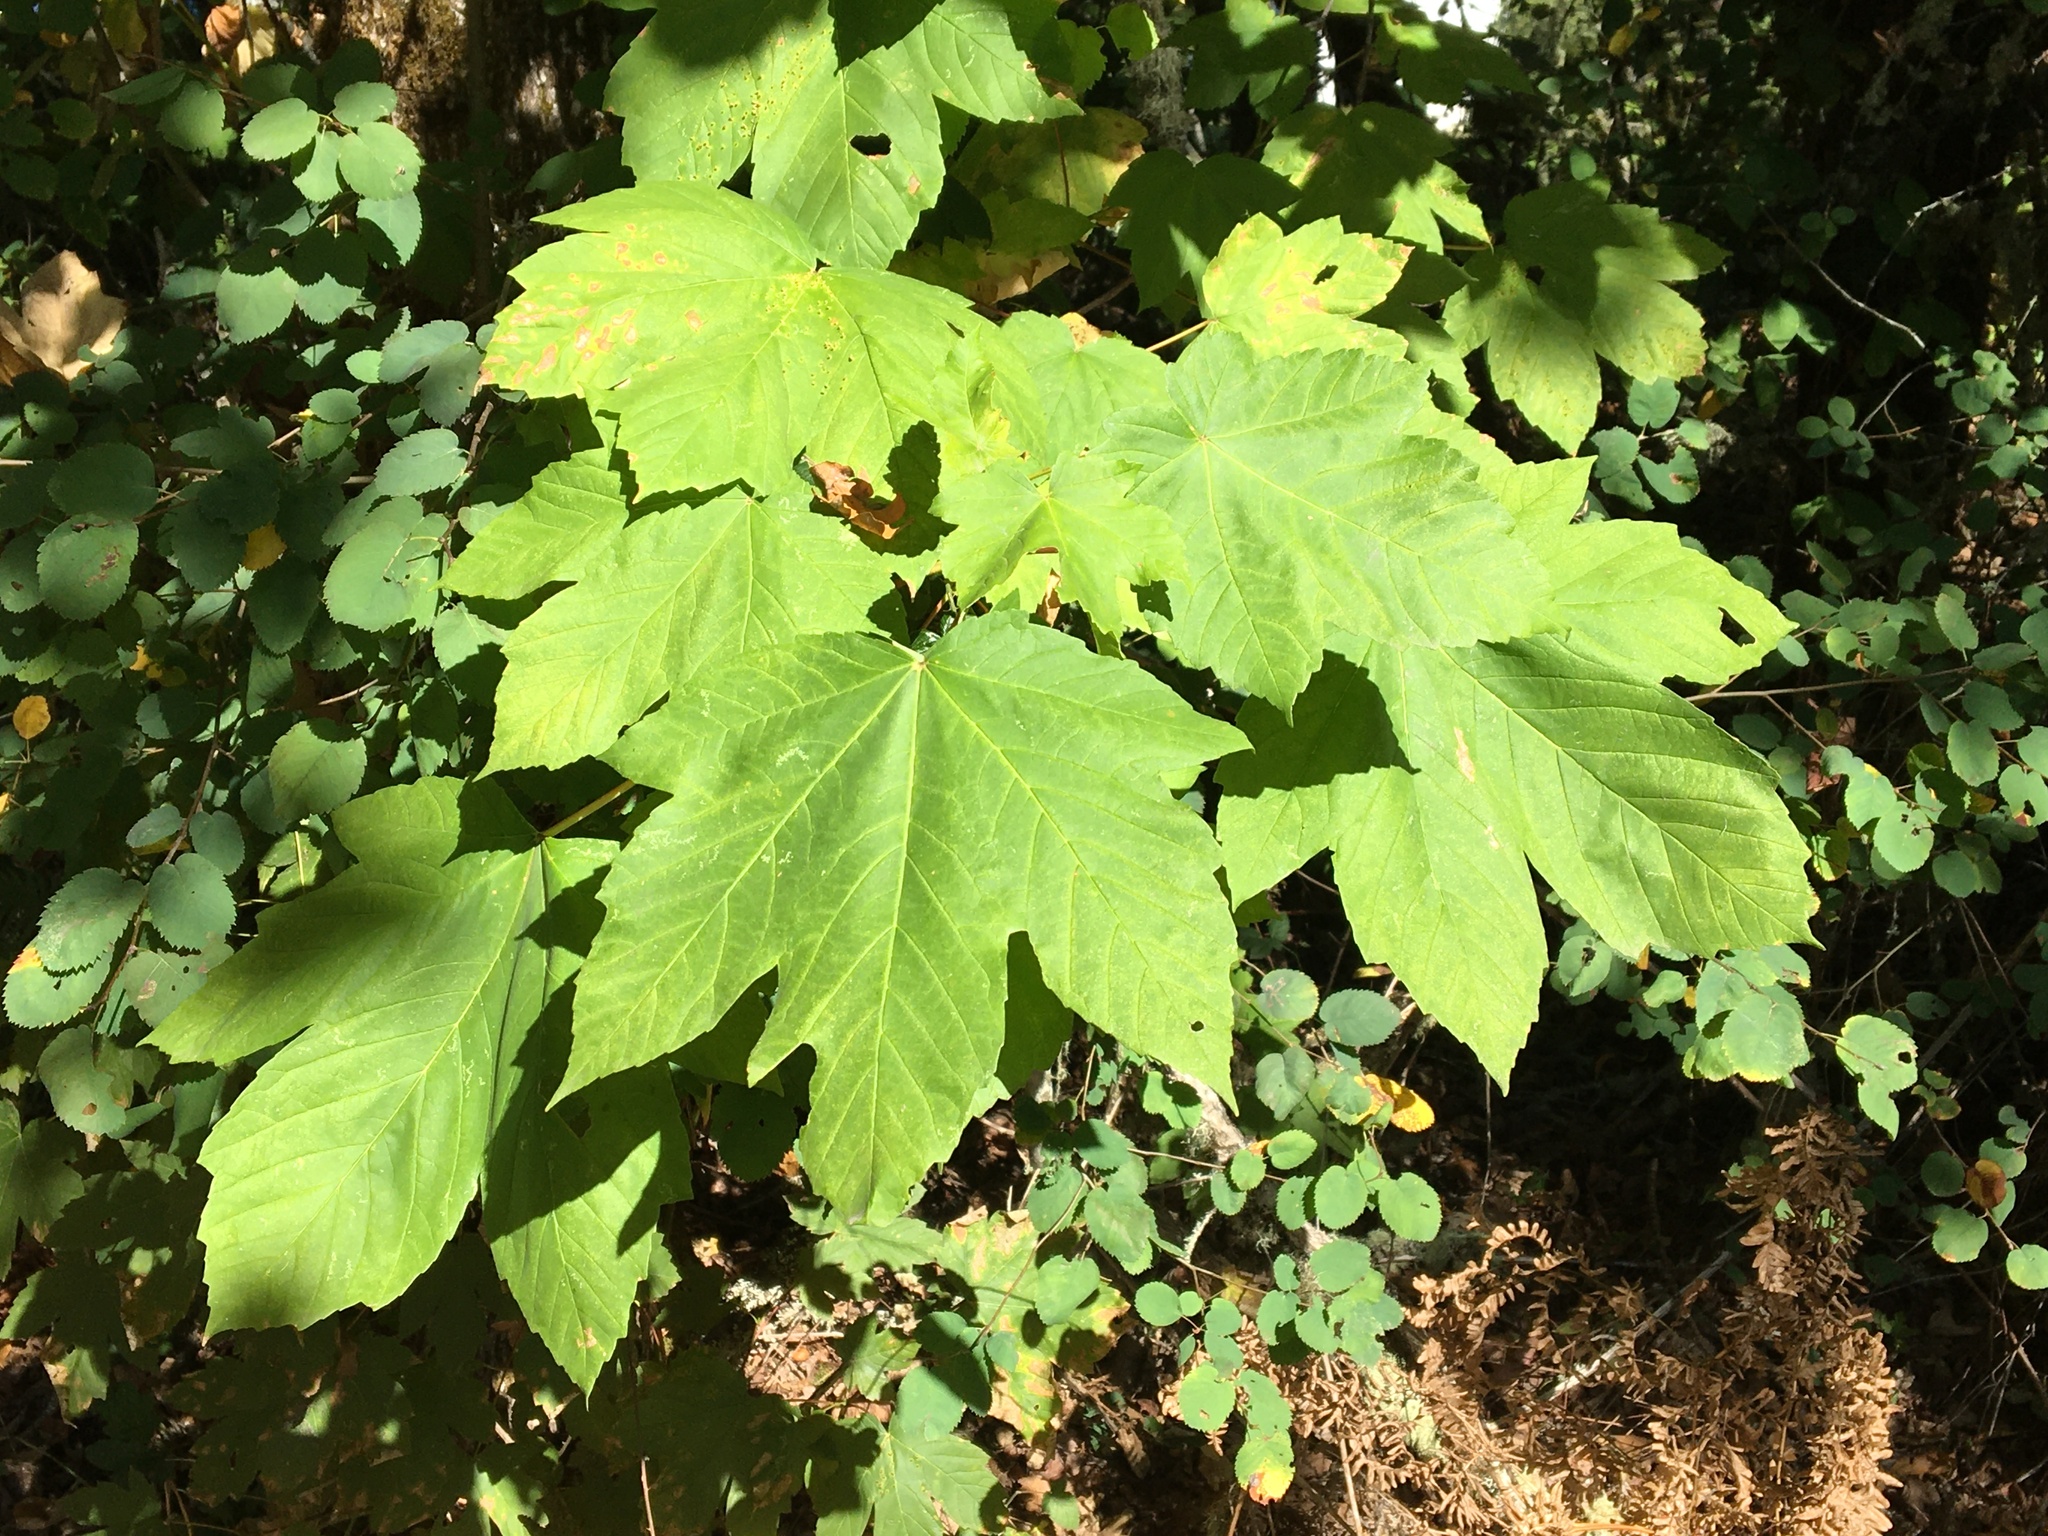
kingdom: Plantae
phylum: Tracheophyta
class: Magnoliopsida
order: Sapindales
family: Sapindaceae
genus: Acer
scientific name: Acer pseudoplatanus
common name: Sycamore
